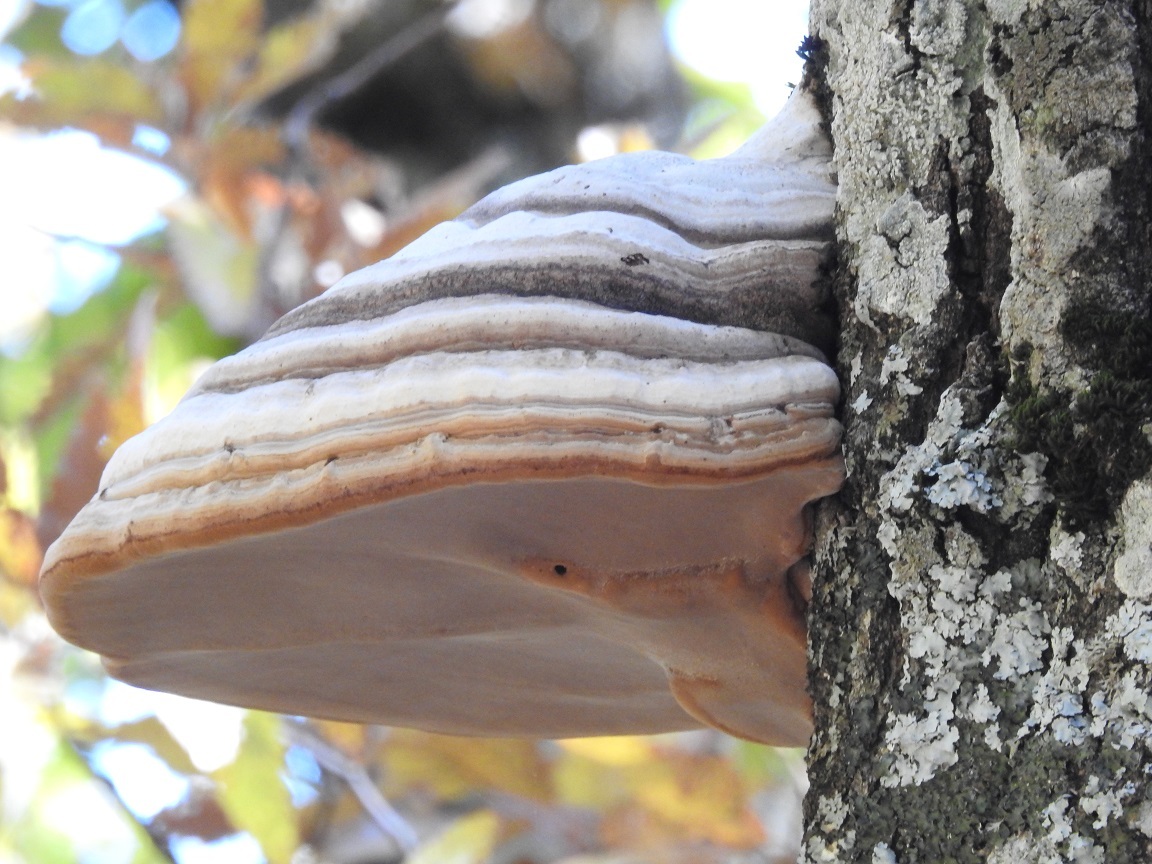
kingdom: Fungi
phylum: Basidiomycota
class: Agaricomycetes
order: Polyporales
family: Polyporaceae
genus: Fomes
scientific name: Fomes fomentarius
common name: Hoof fungus
